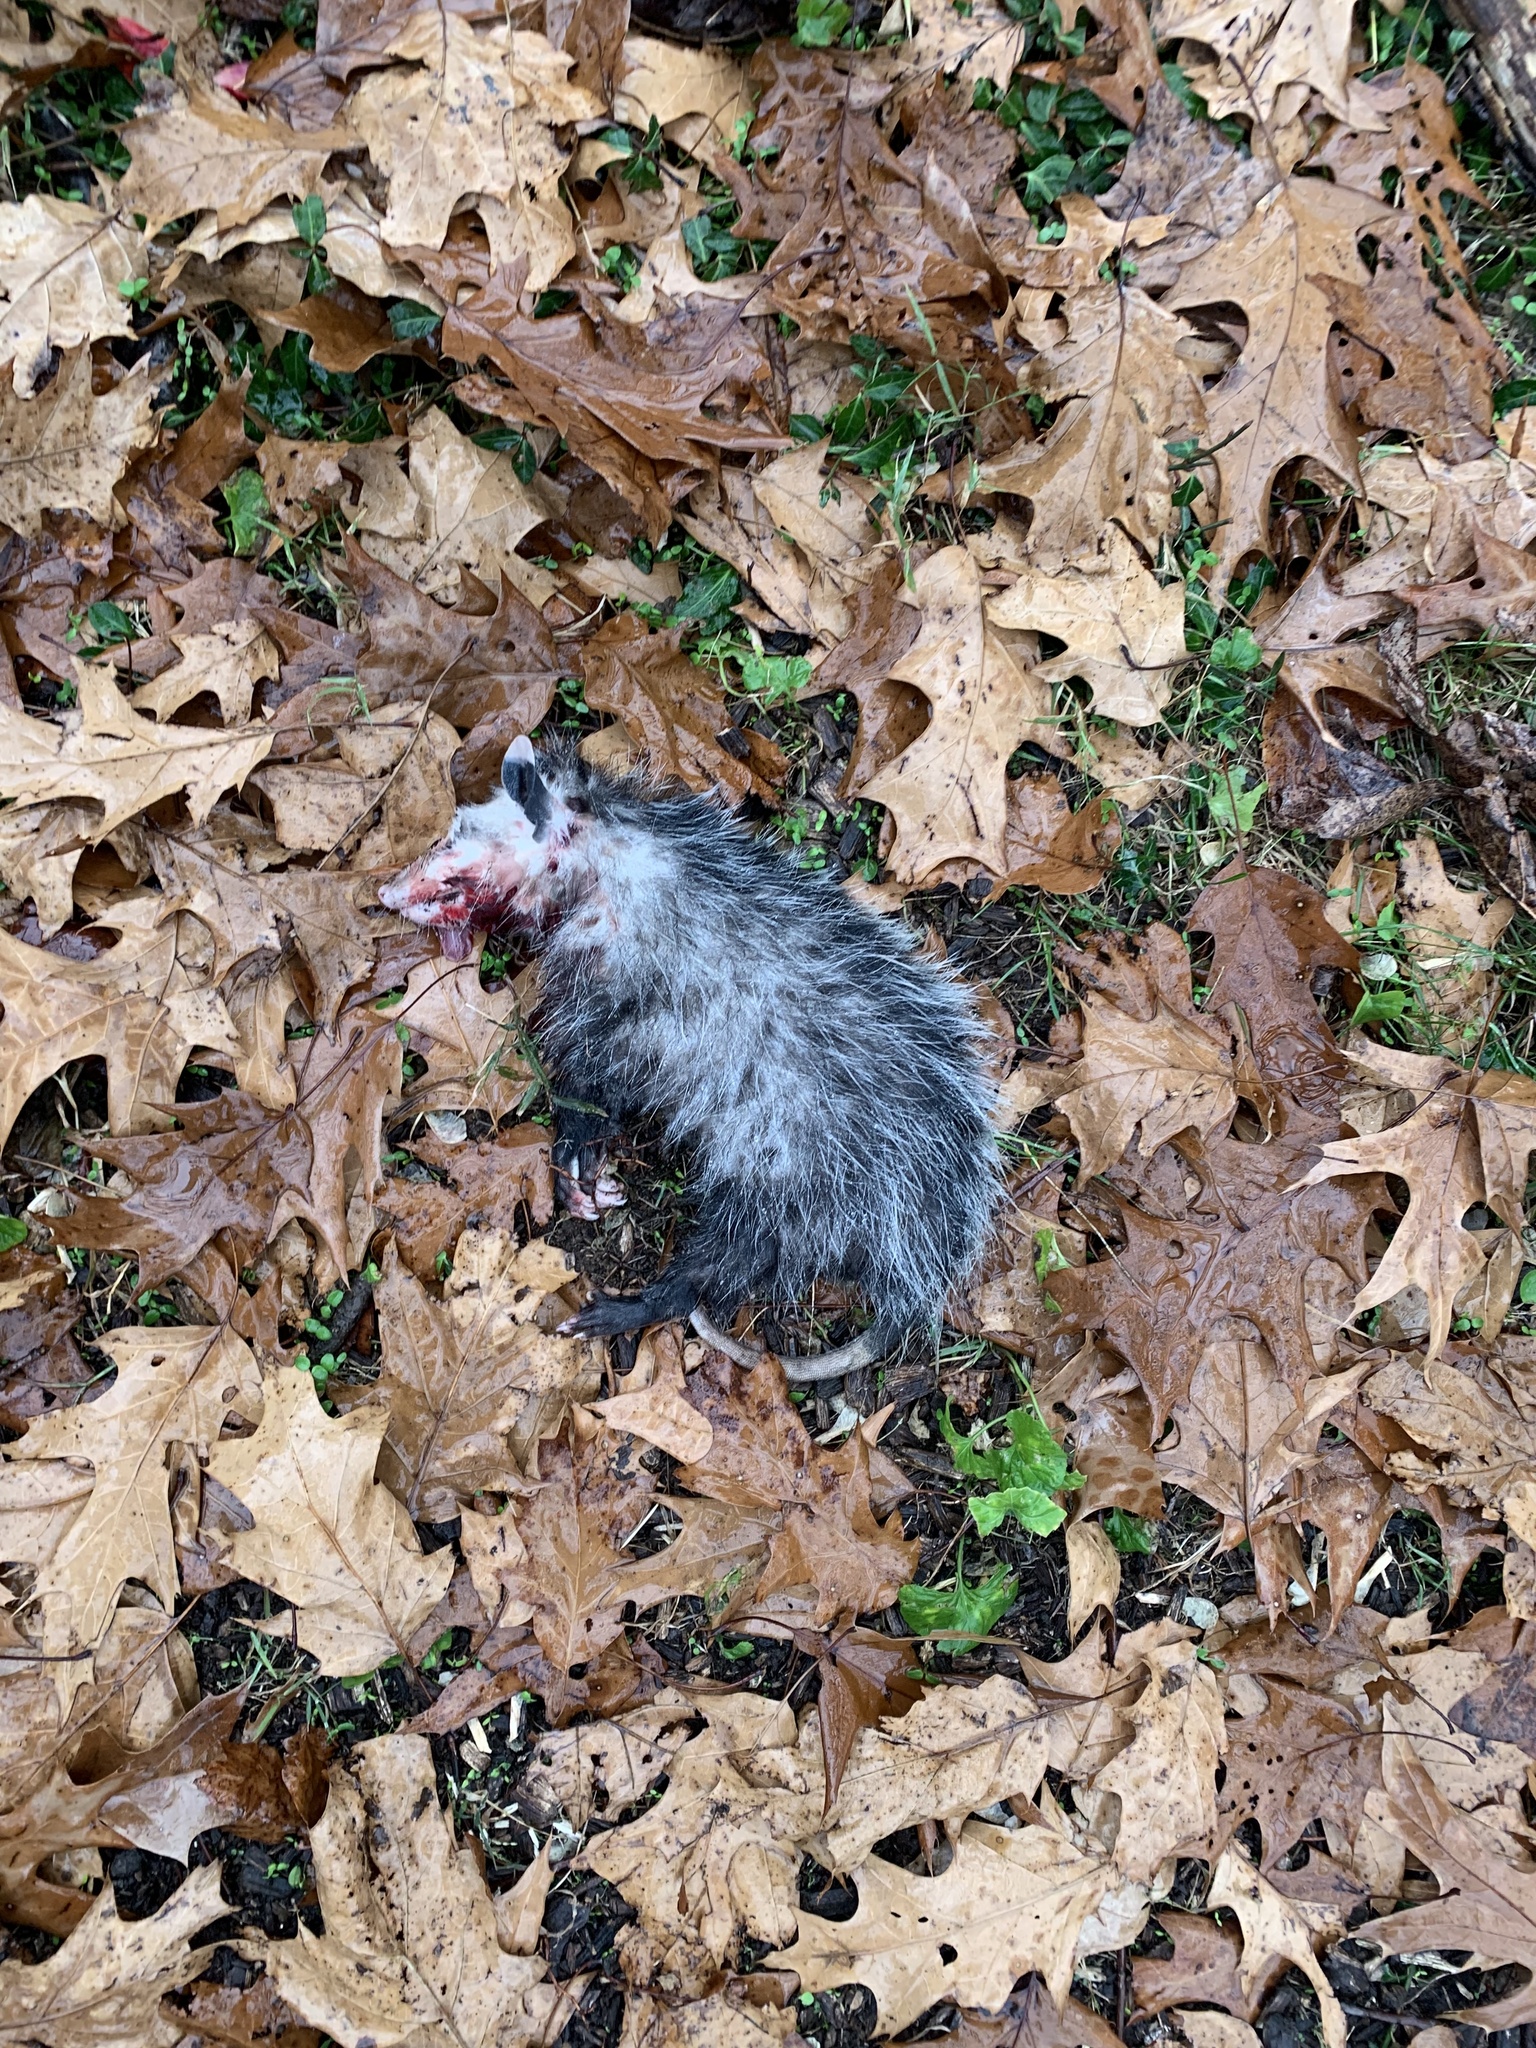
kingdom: Animalia
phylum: Chordata
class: Mammalia
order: Didelphimorphia
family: Didelphidae
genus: Didelphis
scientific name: Didelphis virginiana
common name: Virginia opossum
